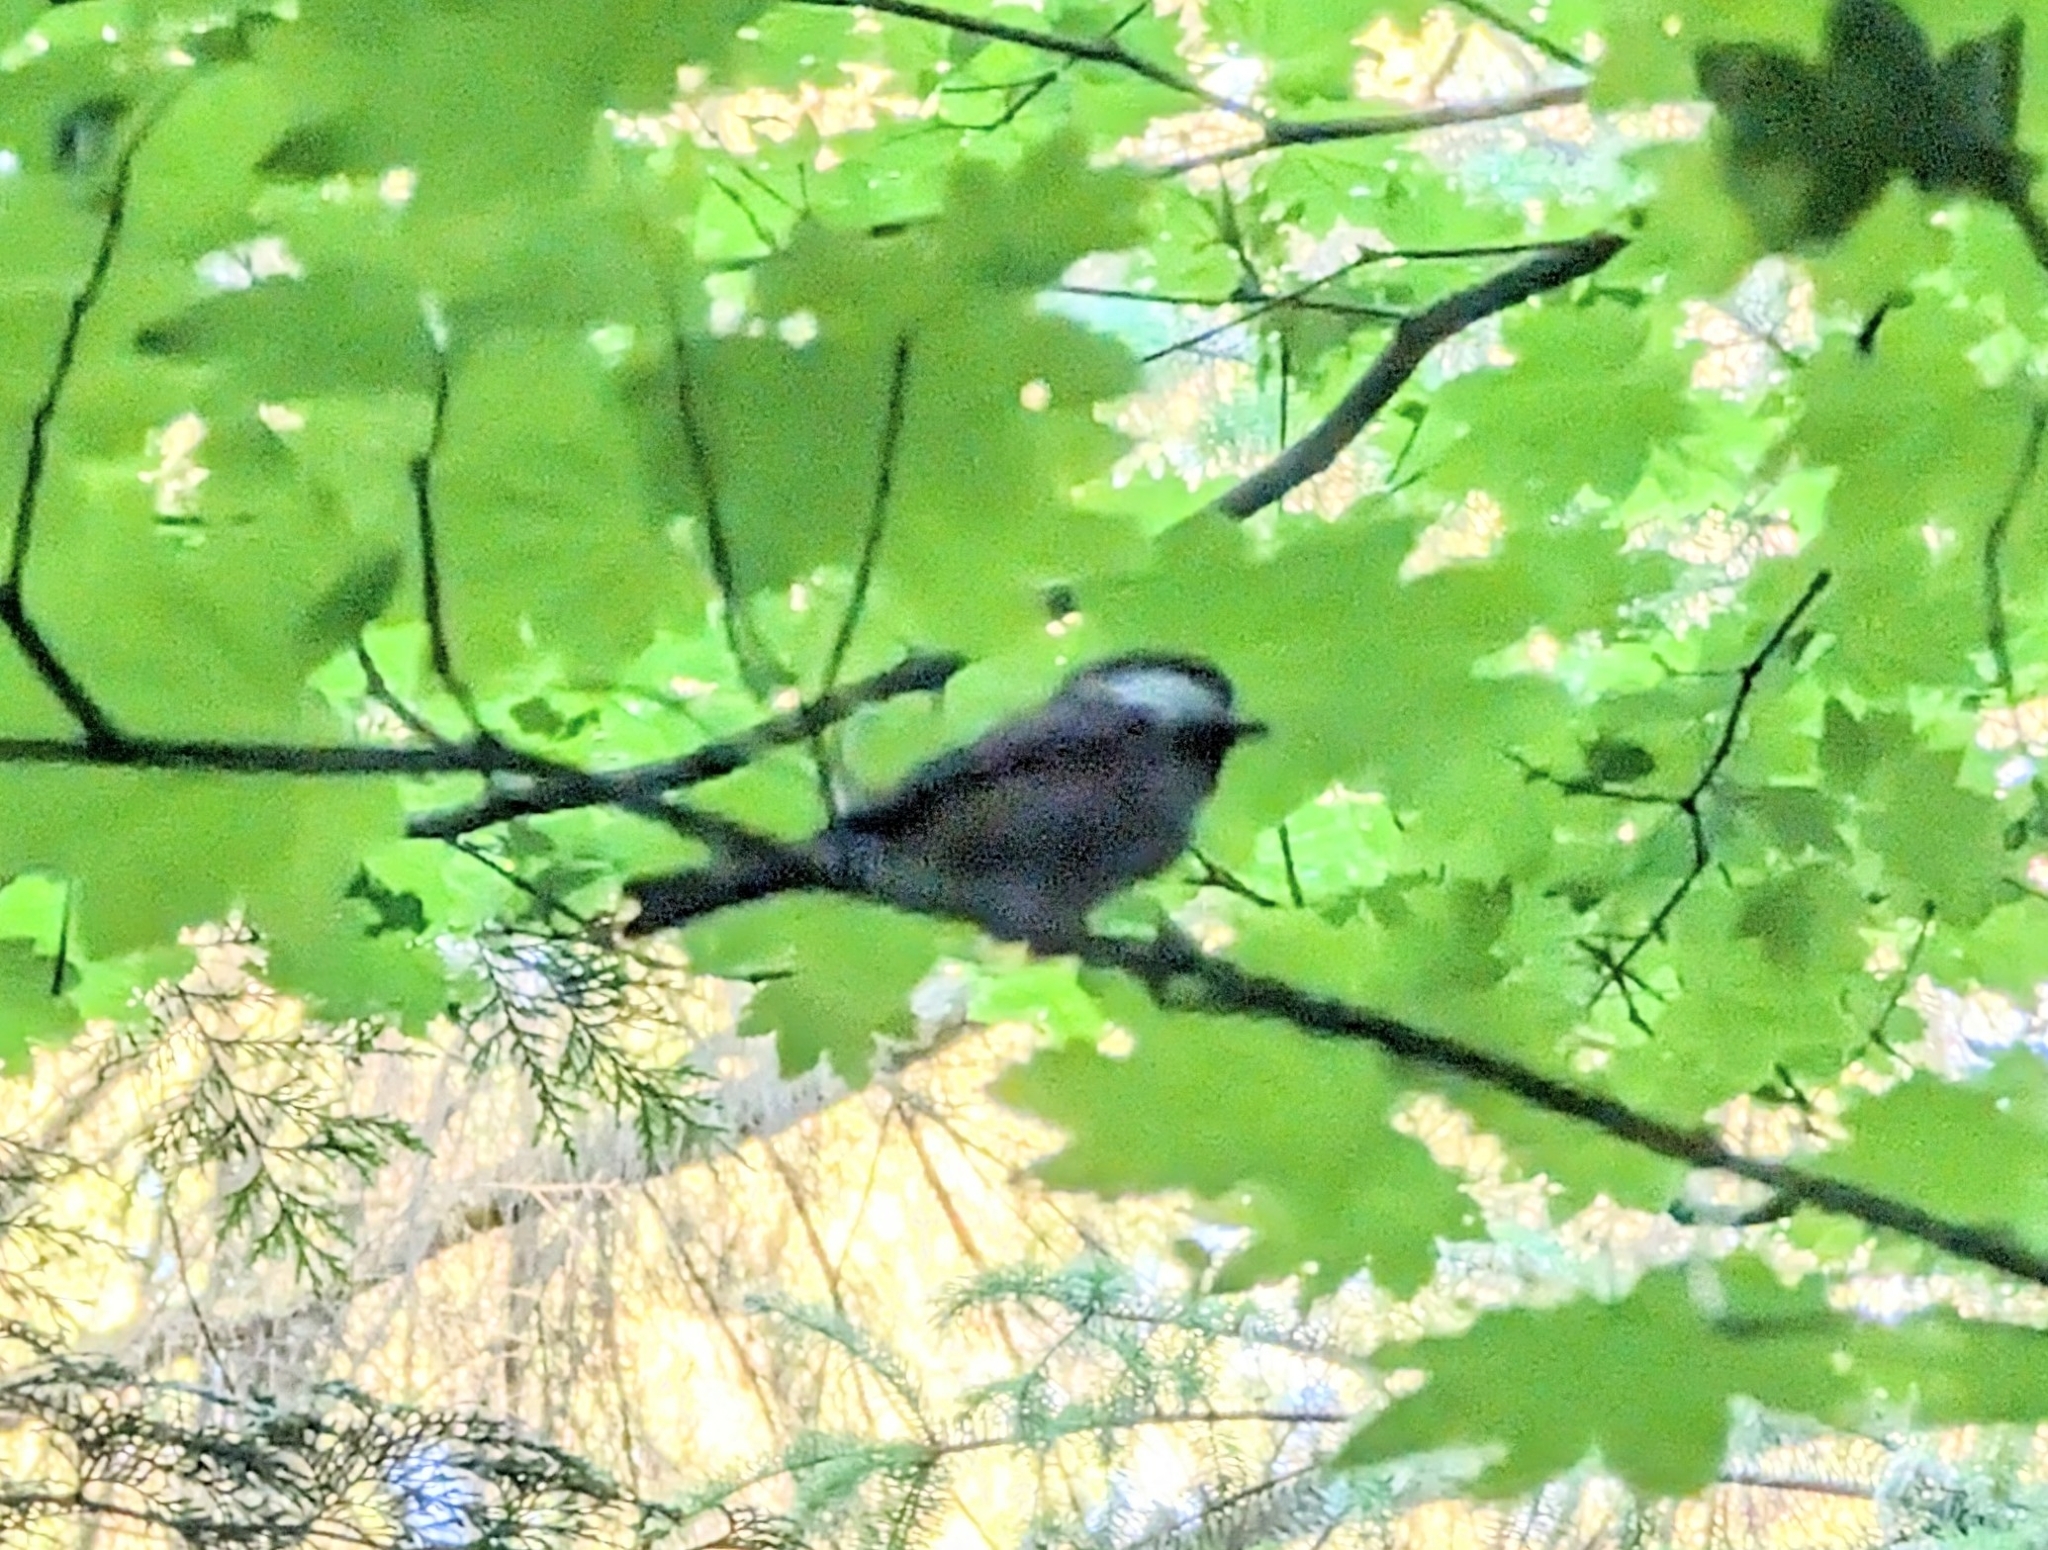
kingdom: Animalia
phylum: Chordata
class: Aves
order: Passeriformes
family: Paridae
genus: Poecile
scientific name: Poecile rufescens
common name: Chestnut-backed chickadee
